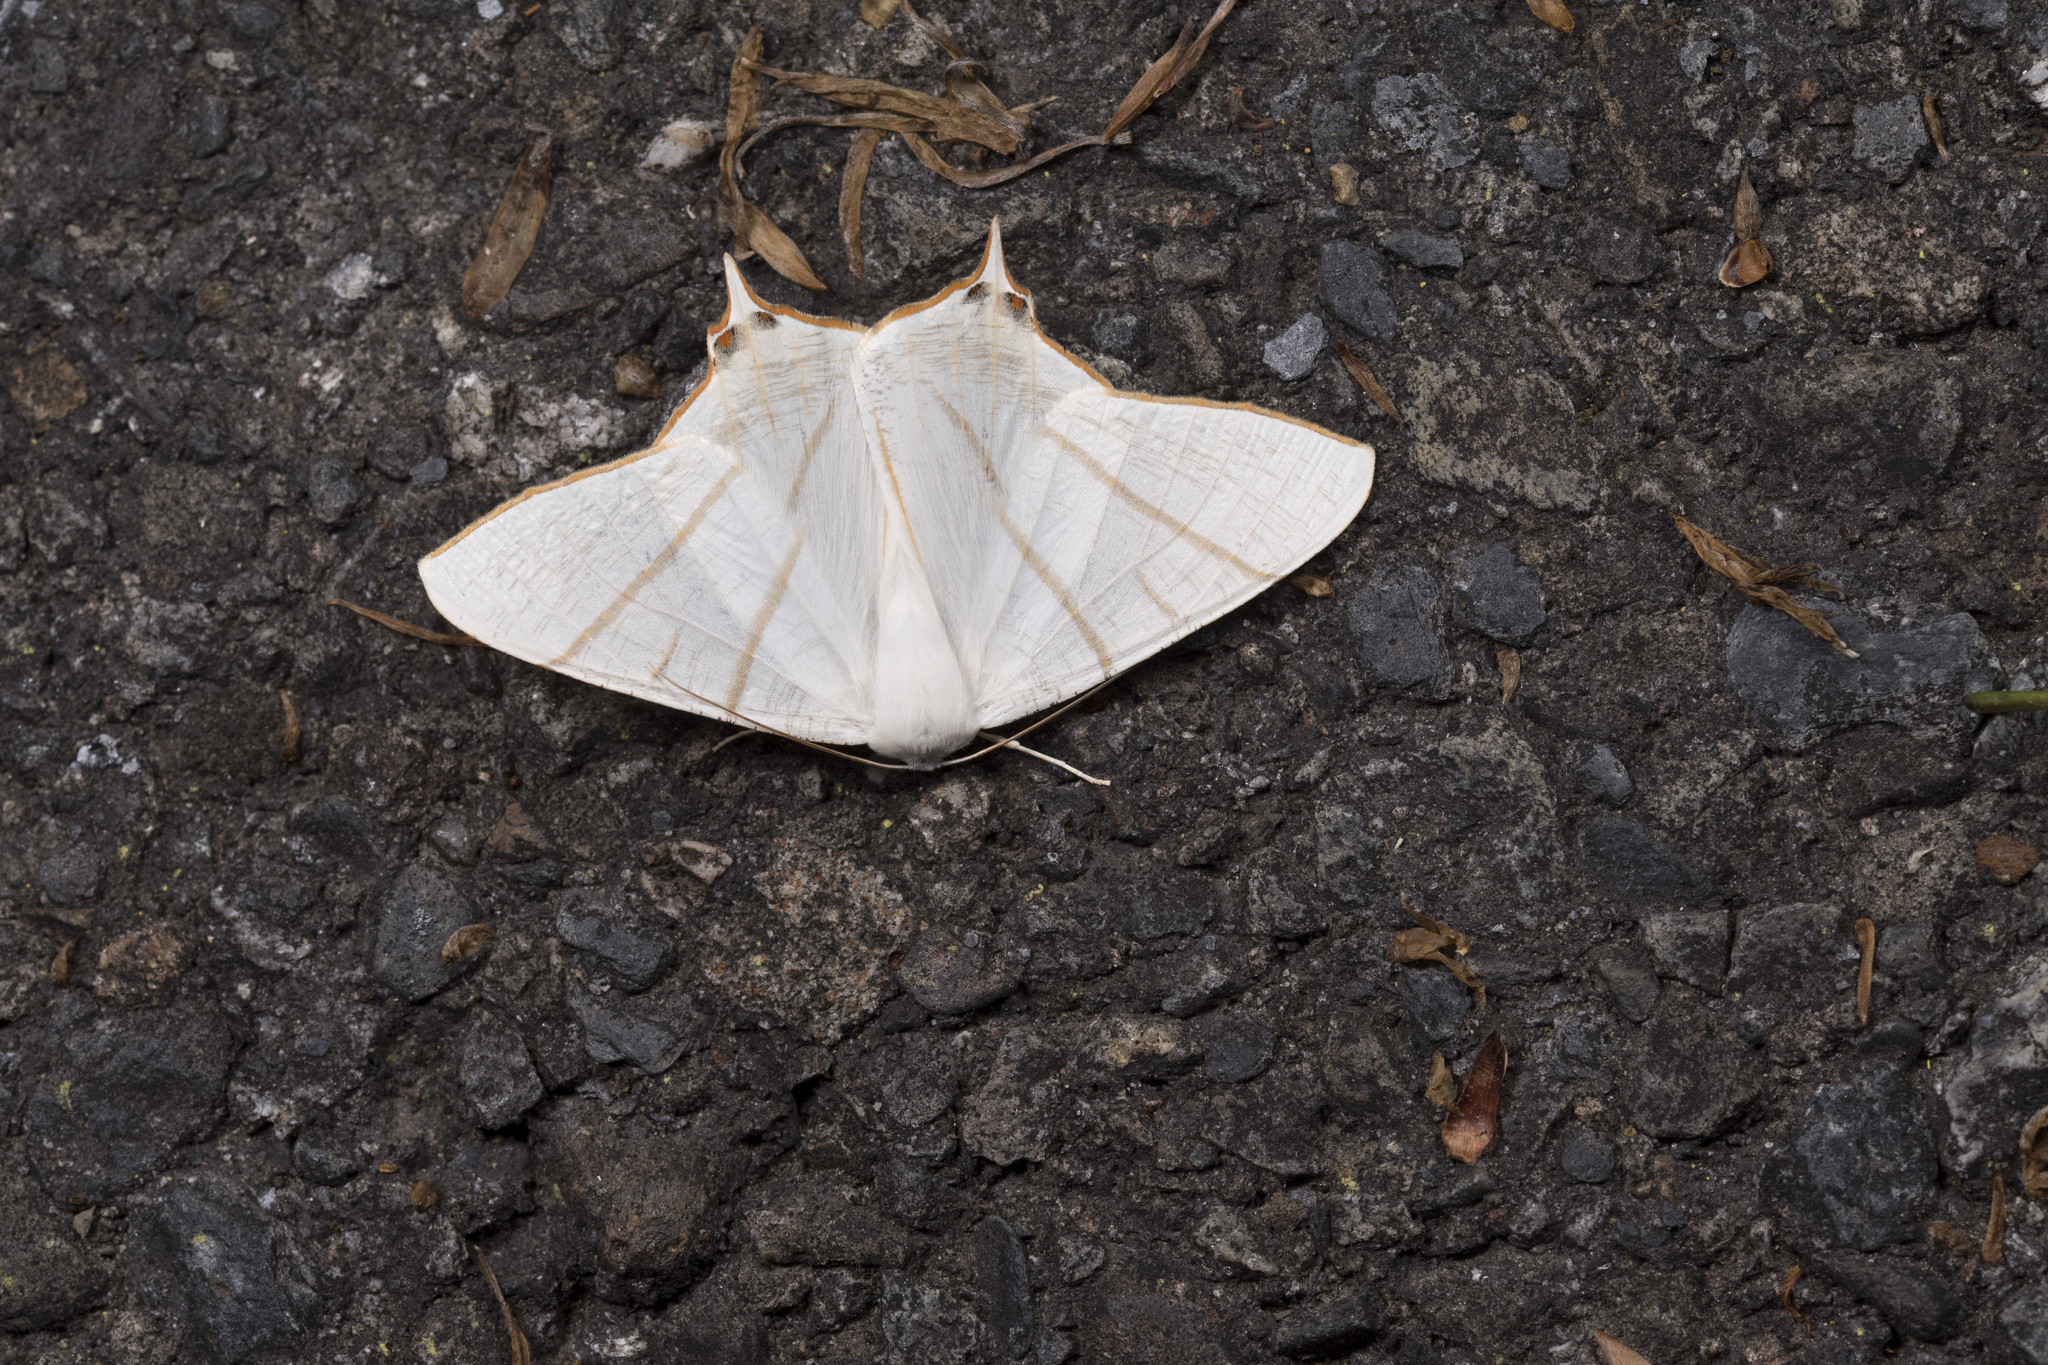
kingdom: Animalia
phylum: Arthropoda
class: Insecta
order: Lepidoptera
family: Geometridae
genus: Ourapteryx
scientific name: Ourapteryx yerburii
